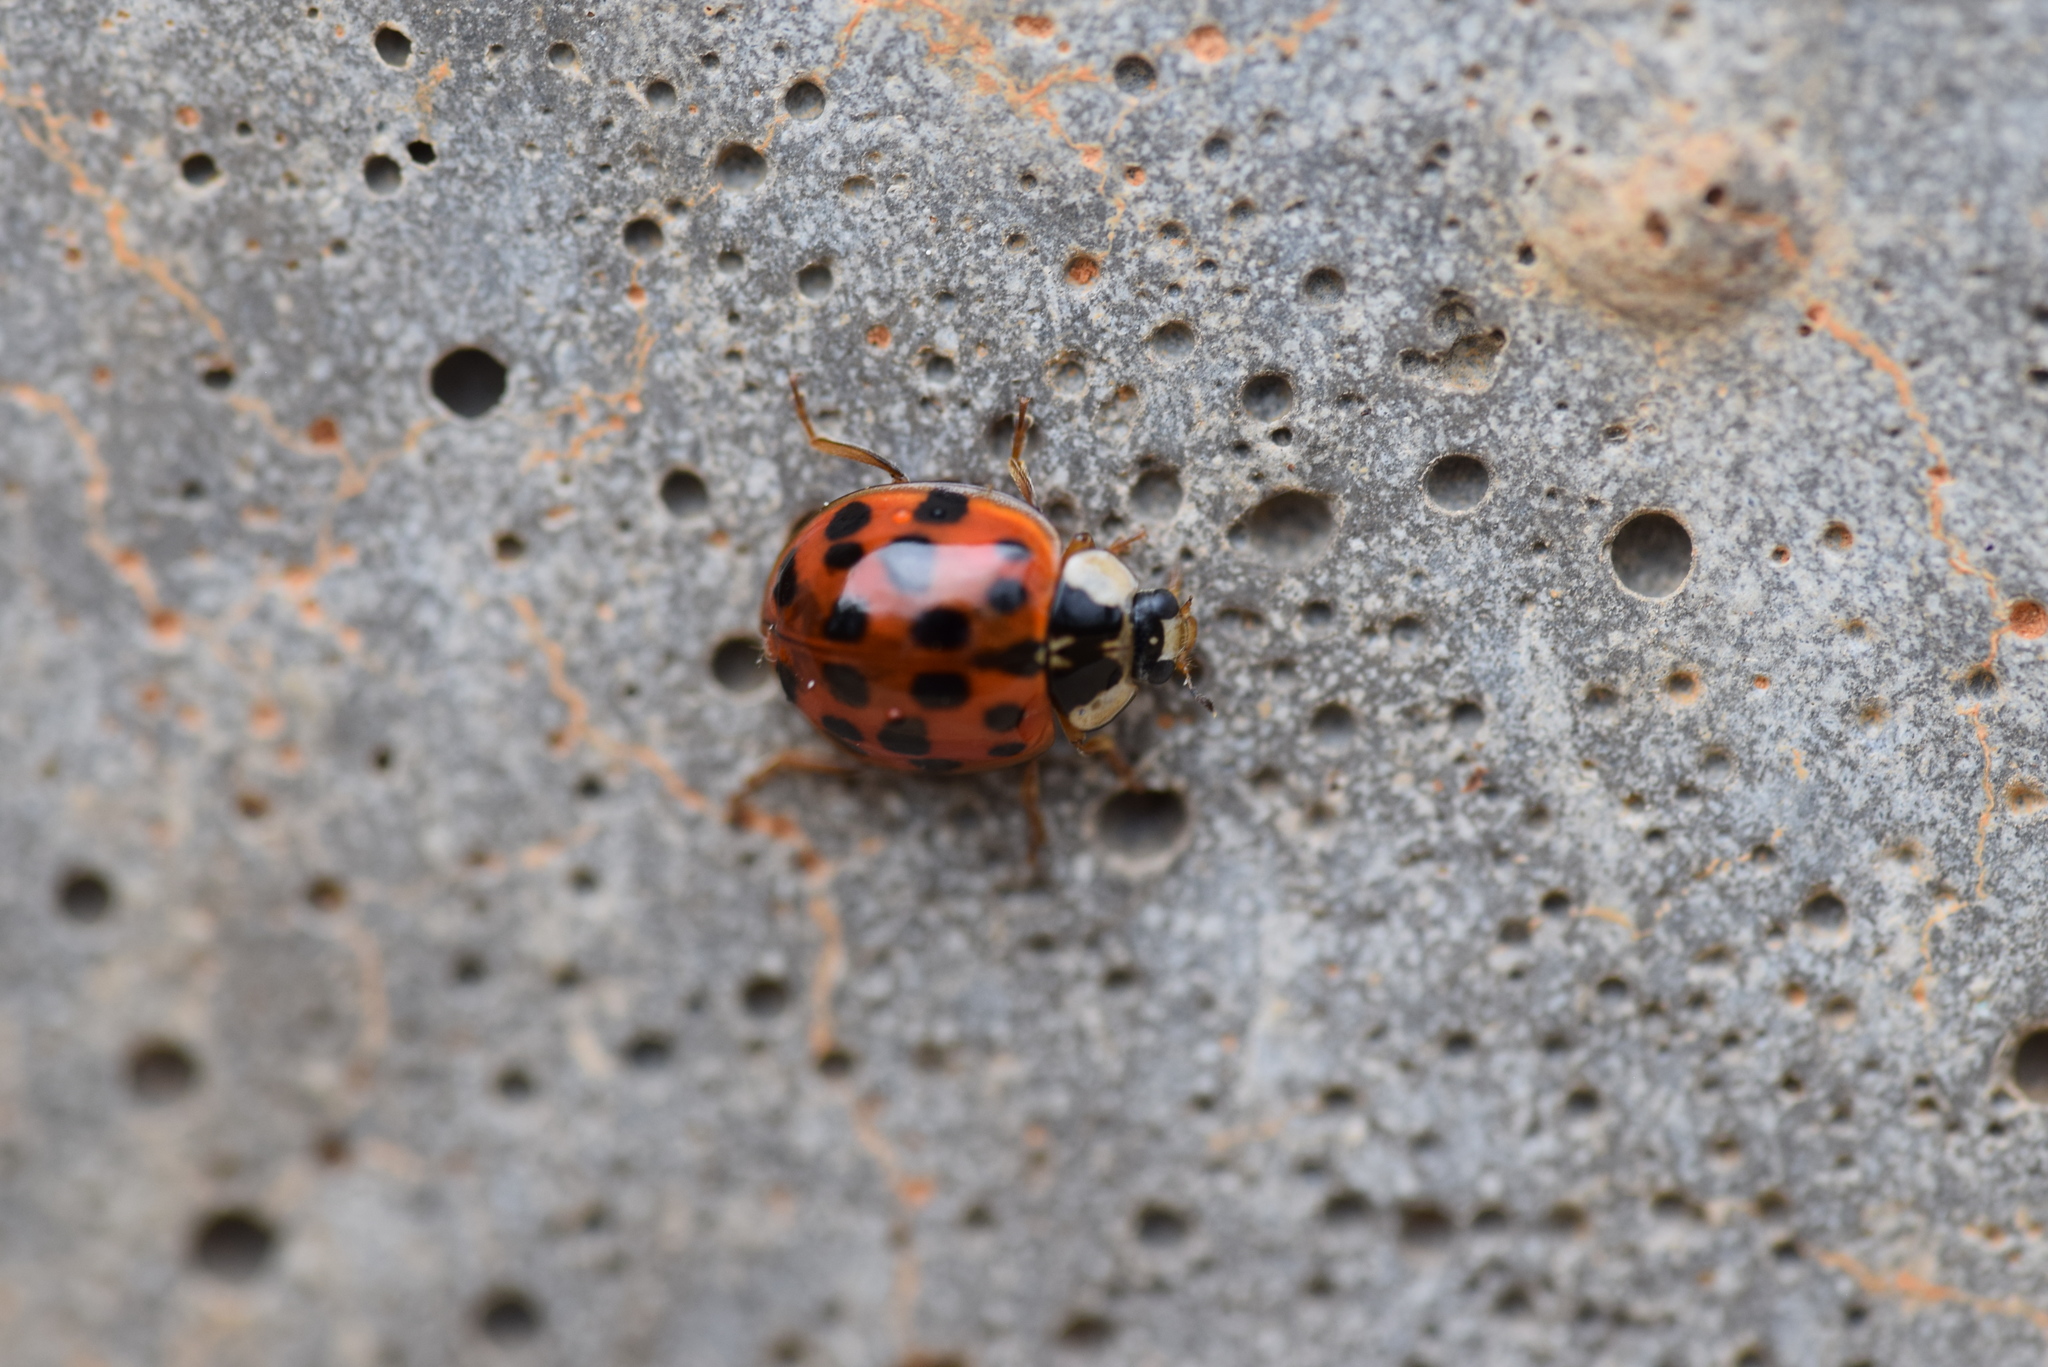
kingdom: Animalia
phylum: Arthropoda
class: Insecta
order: Coleoptera
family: Coccinellidae
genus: Harmonia
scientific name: Harmonia axyridis
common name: Harlequin ladybird
